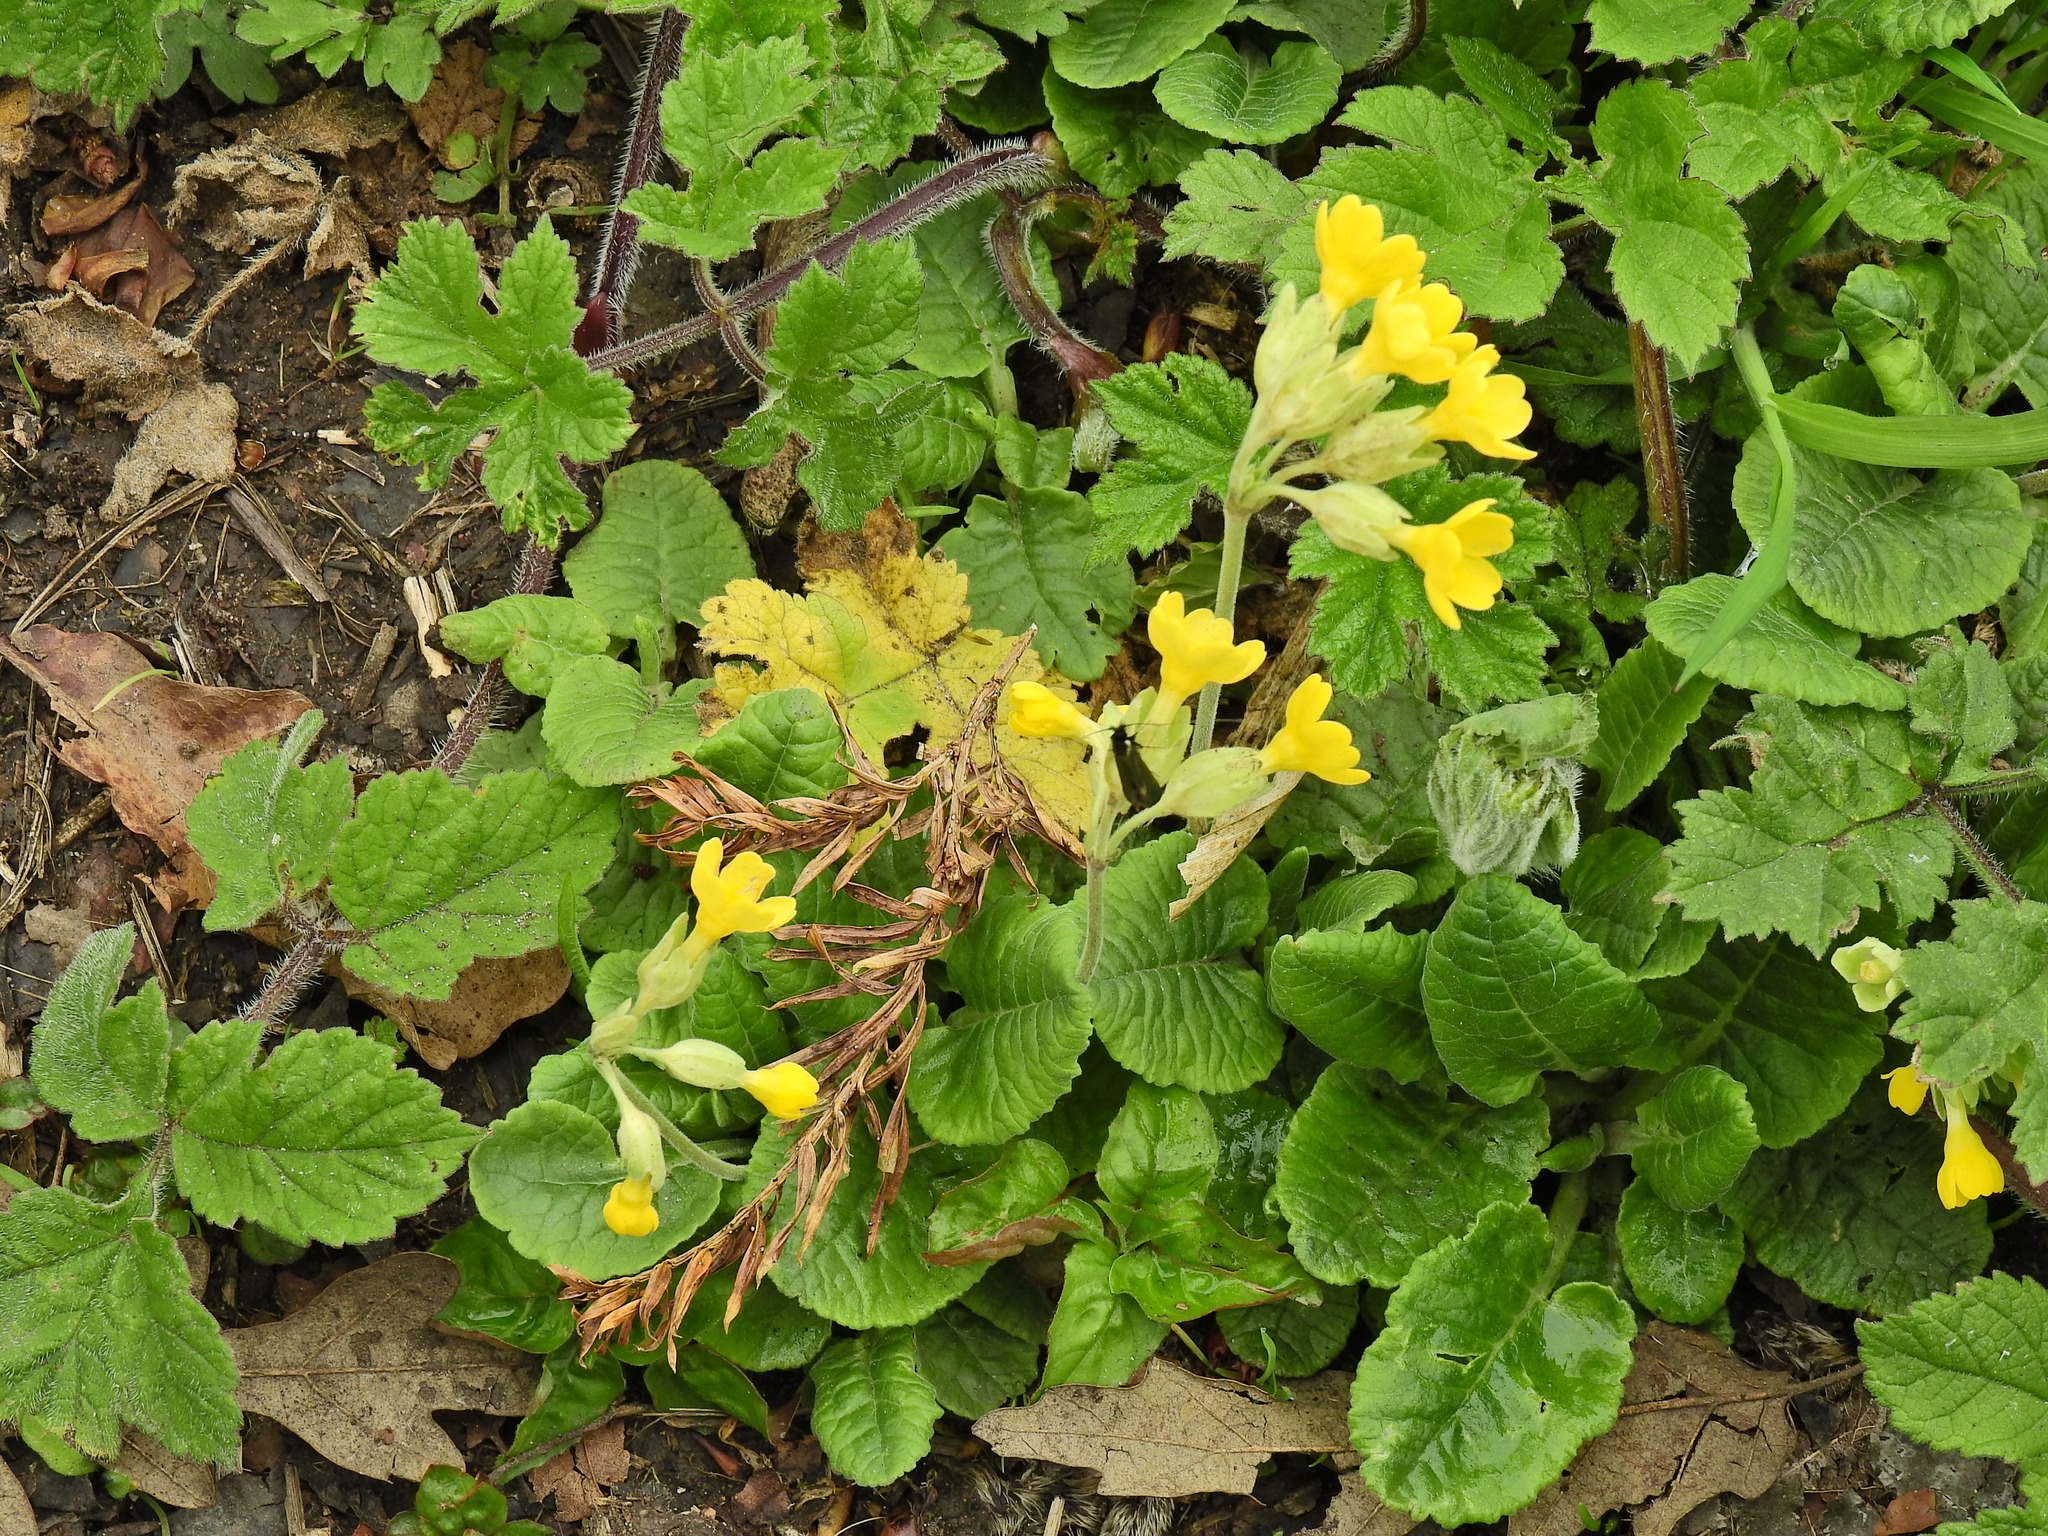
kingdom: Plantae
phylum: Tracheophyta
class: Magnoliopsida
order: Ericales
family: Primulaceae
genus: Primula
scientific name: Primula veris
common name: Cowslip
